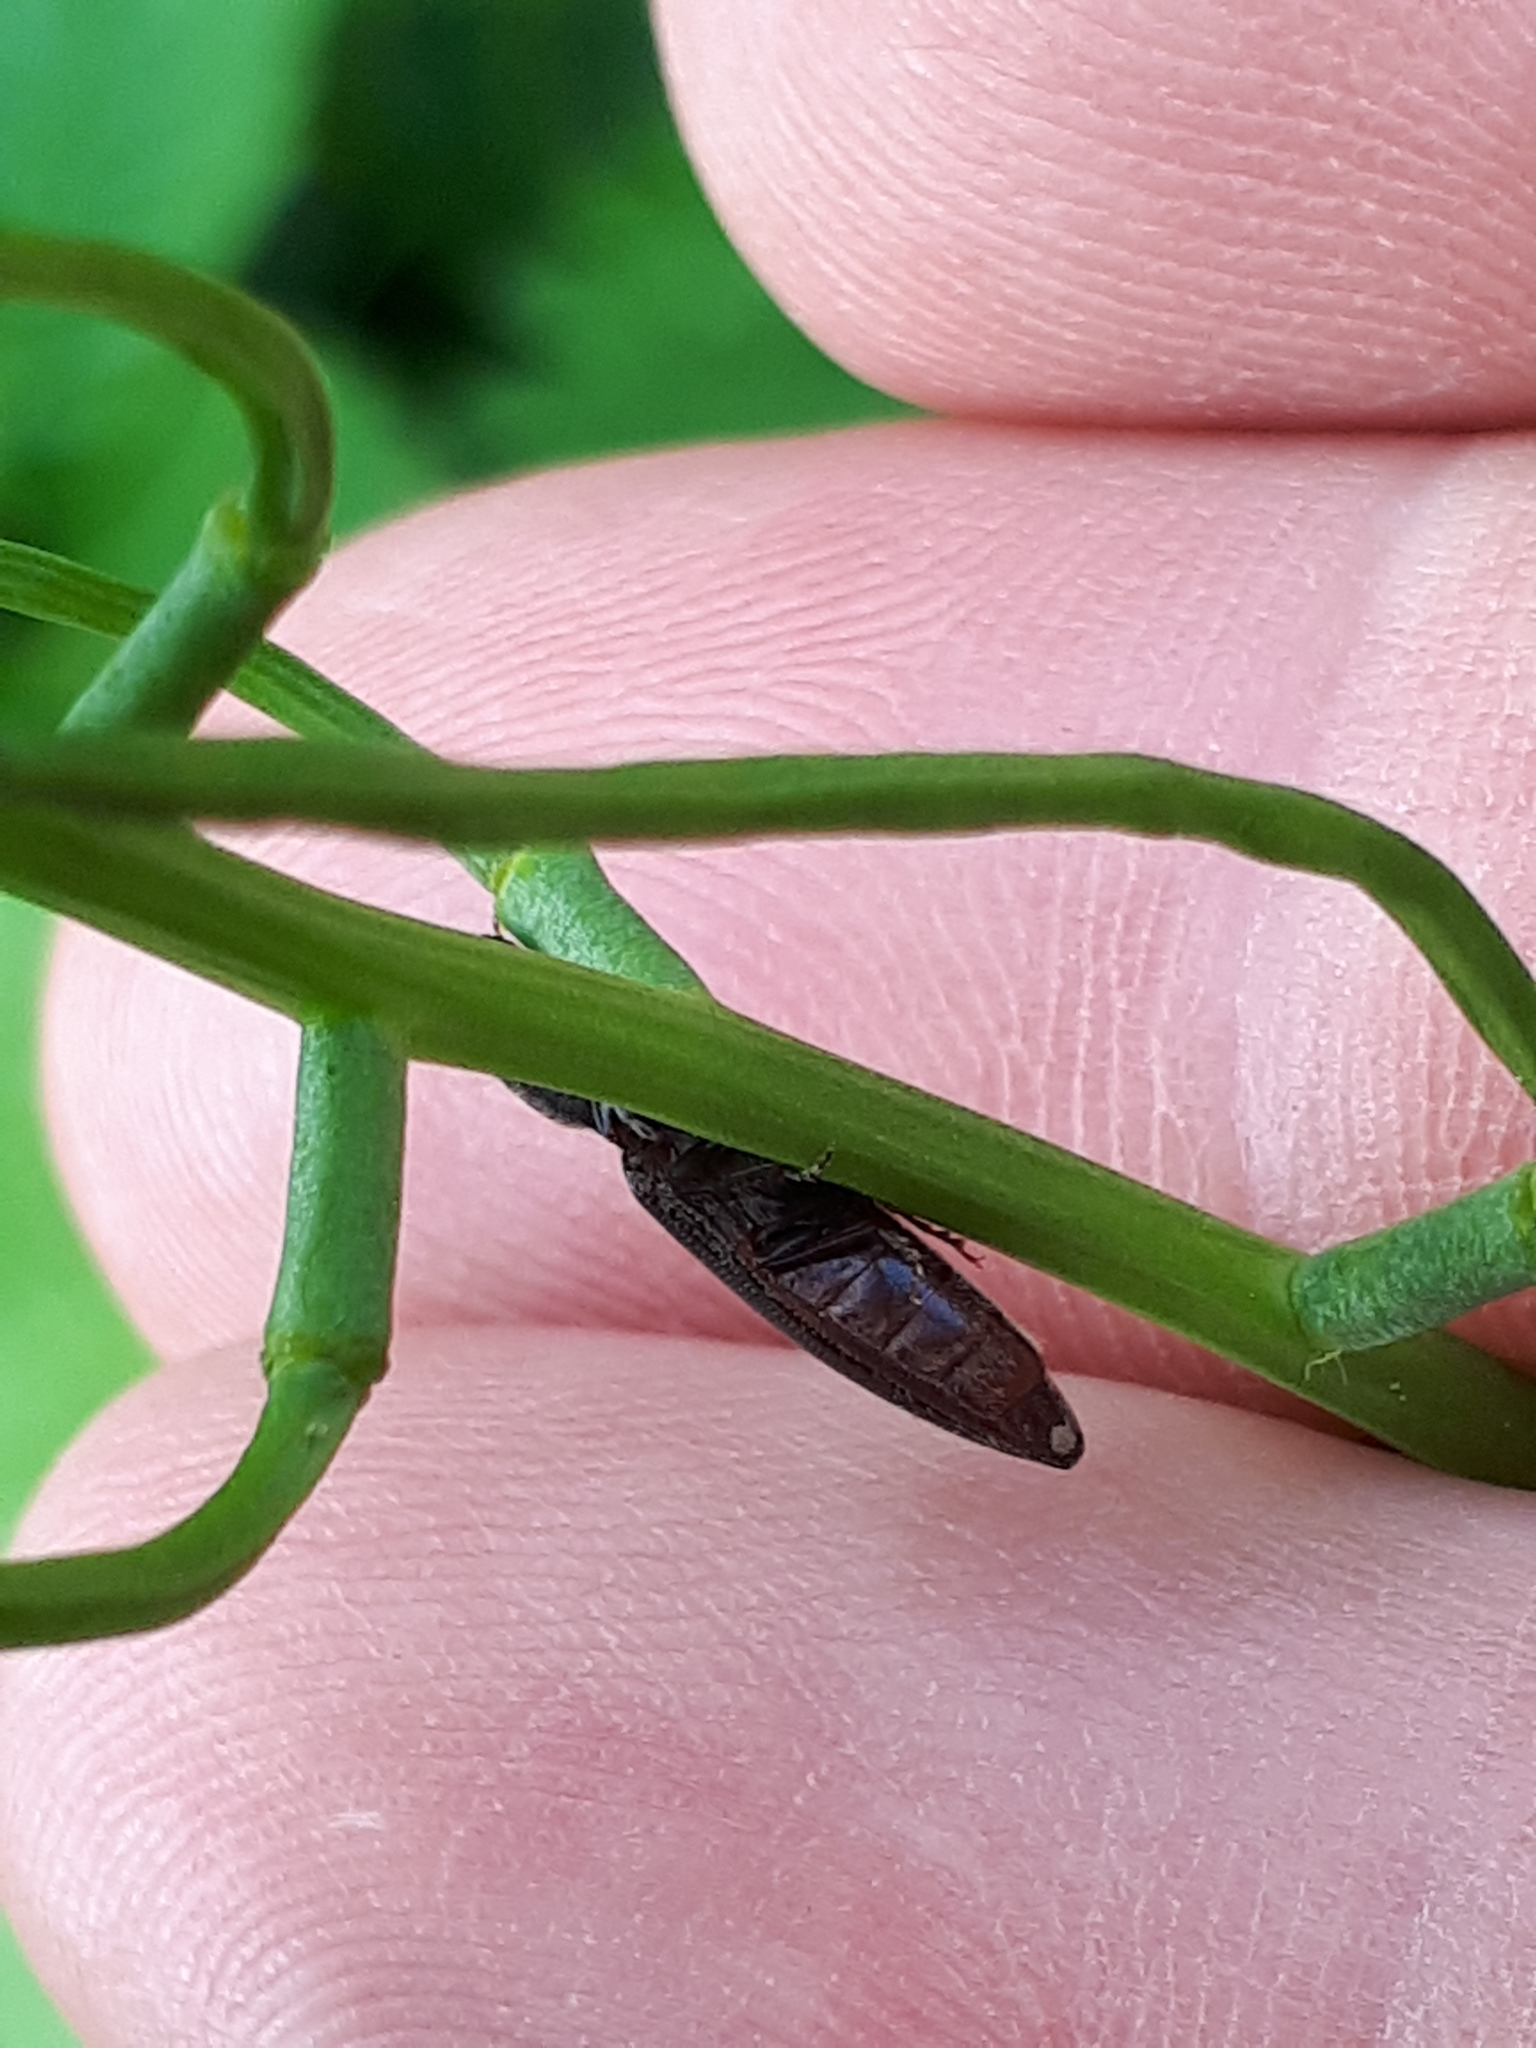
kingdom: Animalia
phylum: Arthropoda
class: Insecta
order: Coleoptera
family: Elateridae
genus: Athous
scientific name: Athous haemorrhoidalis
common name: Red-brown click beetle
